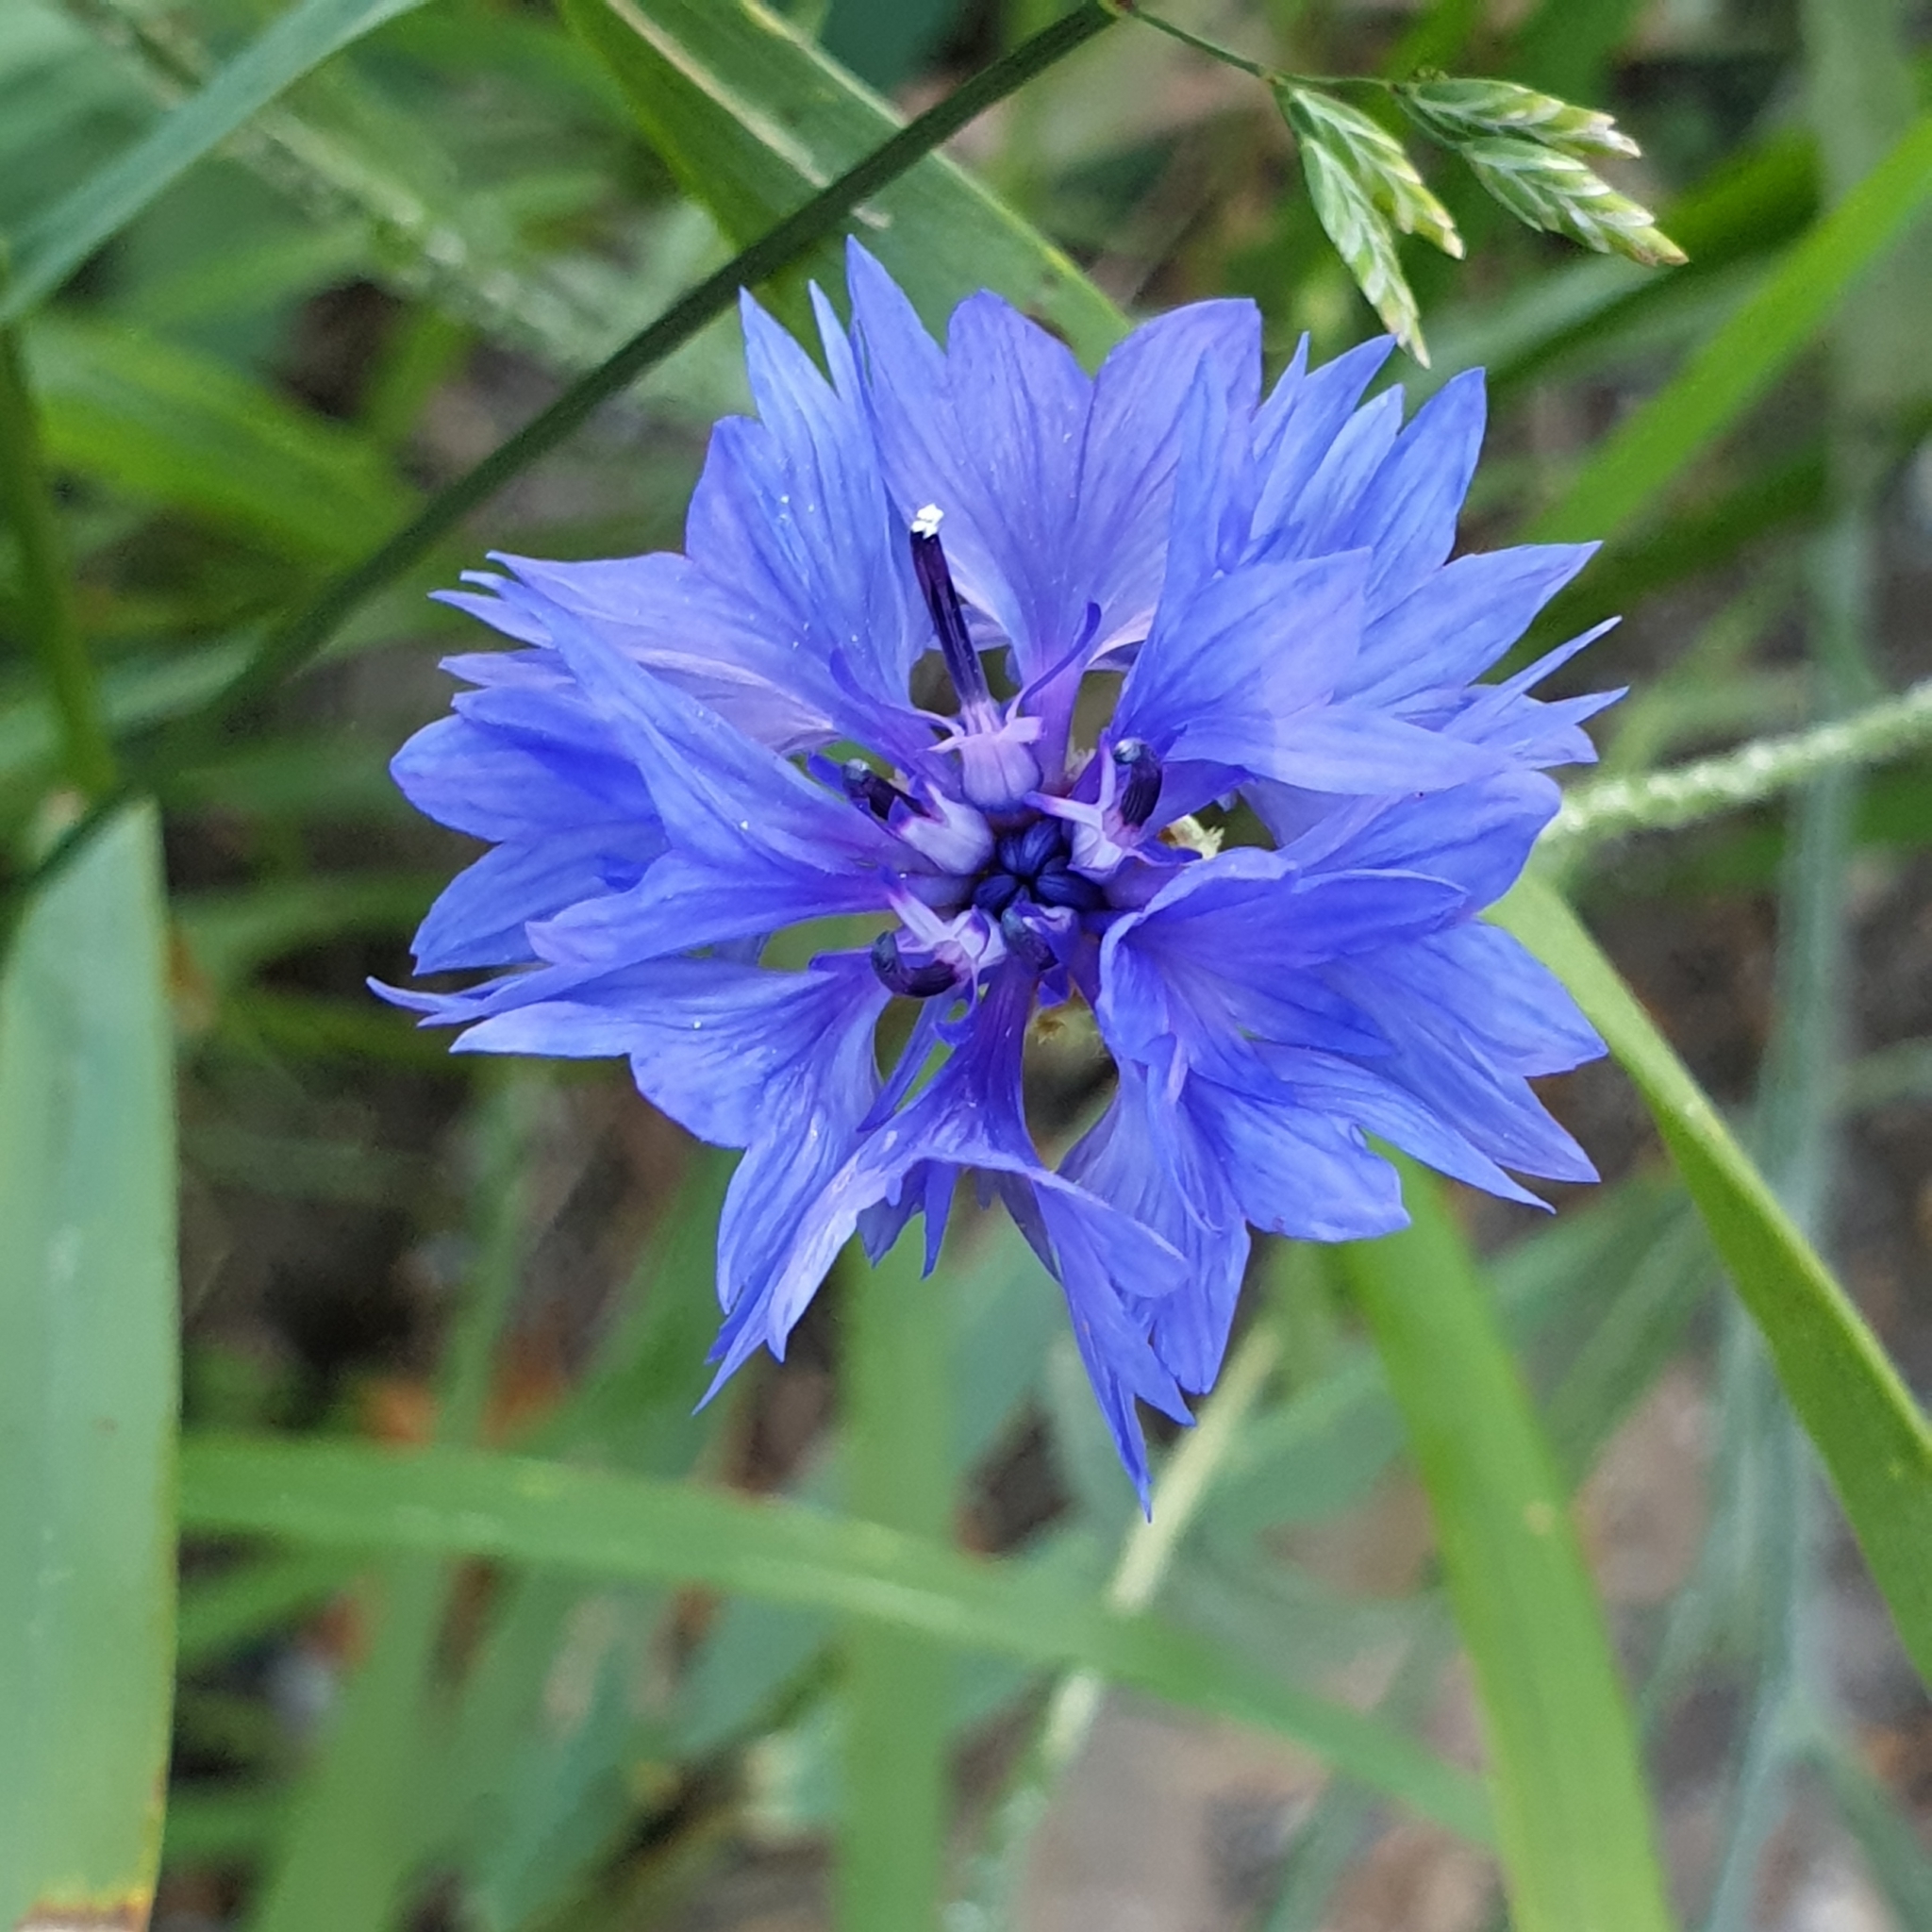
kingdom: Plantae
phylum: Tracheophyta
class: Magnoliopsida
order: Asterales
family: Asteraceae
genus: Centaurea
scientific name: Centaurea cyanus
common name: Cornflower
